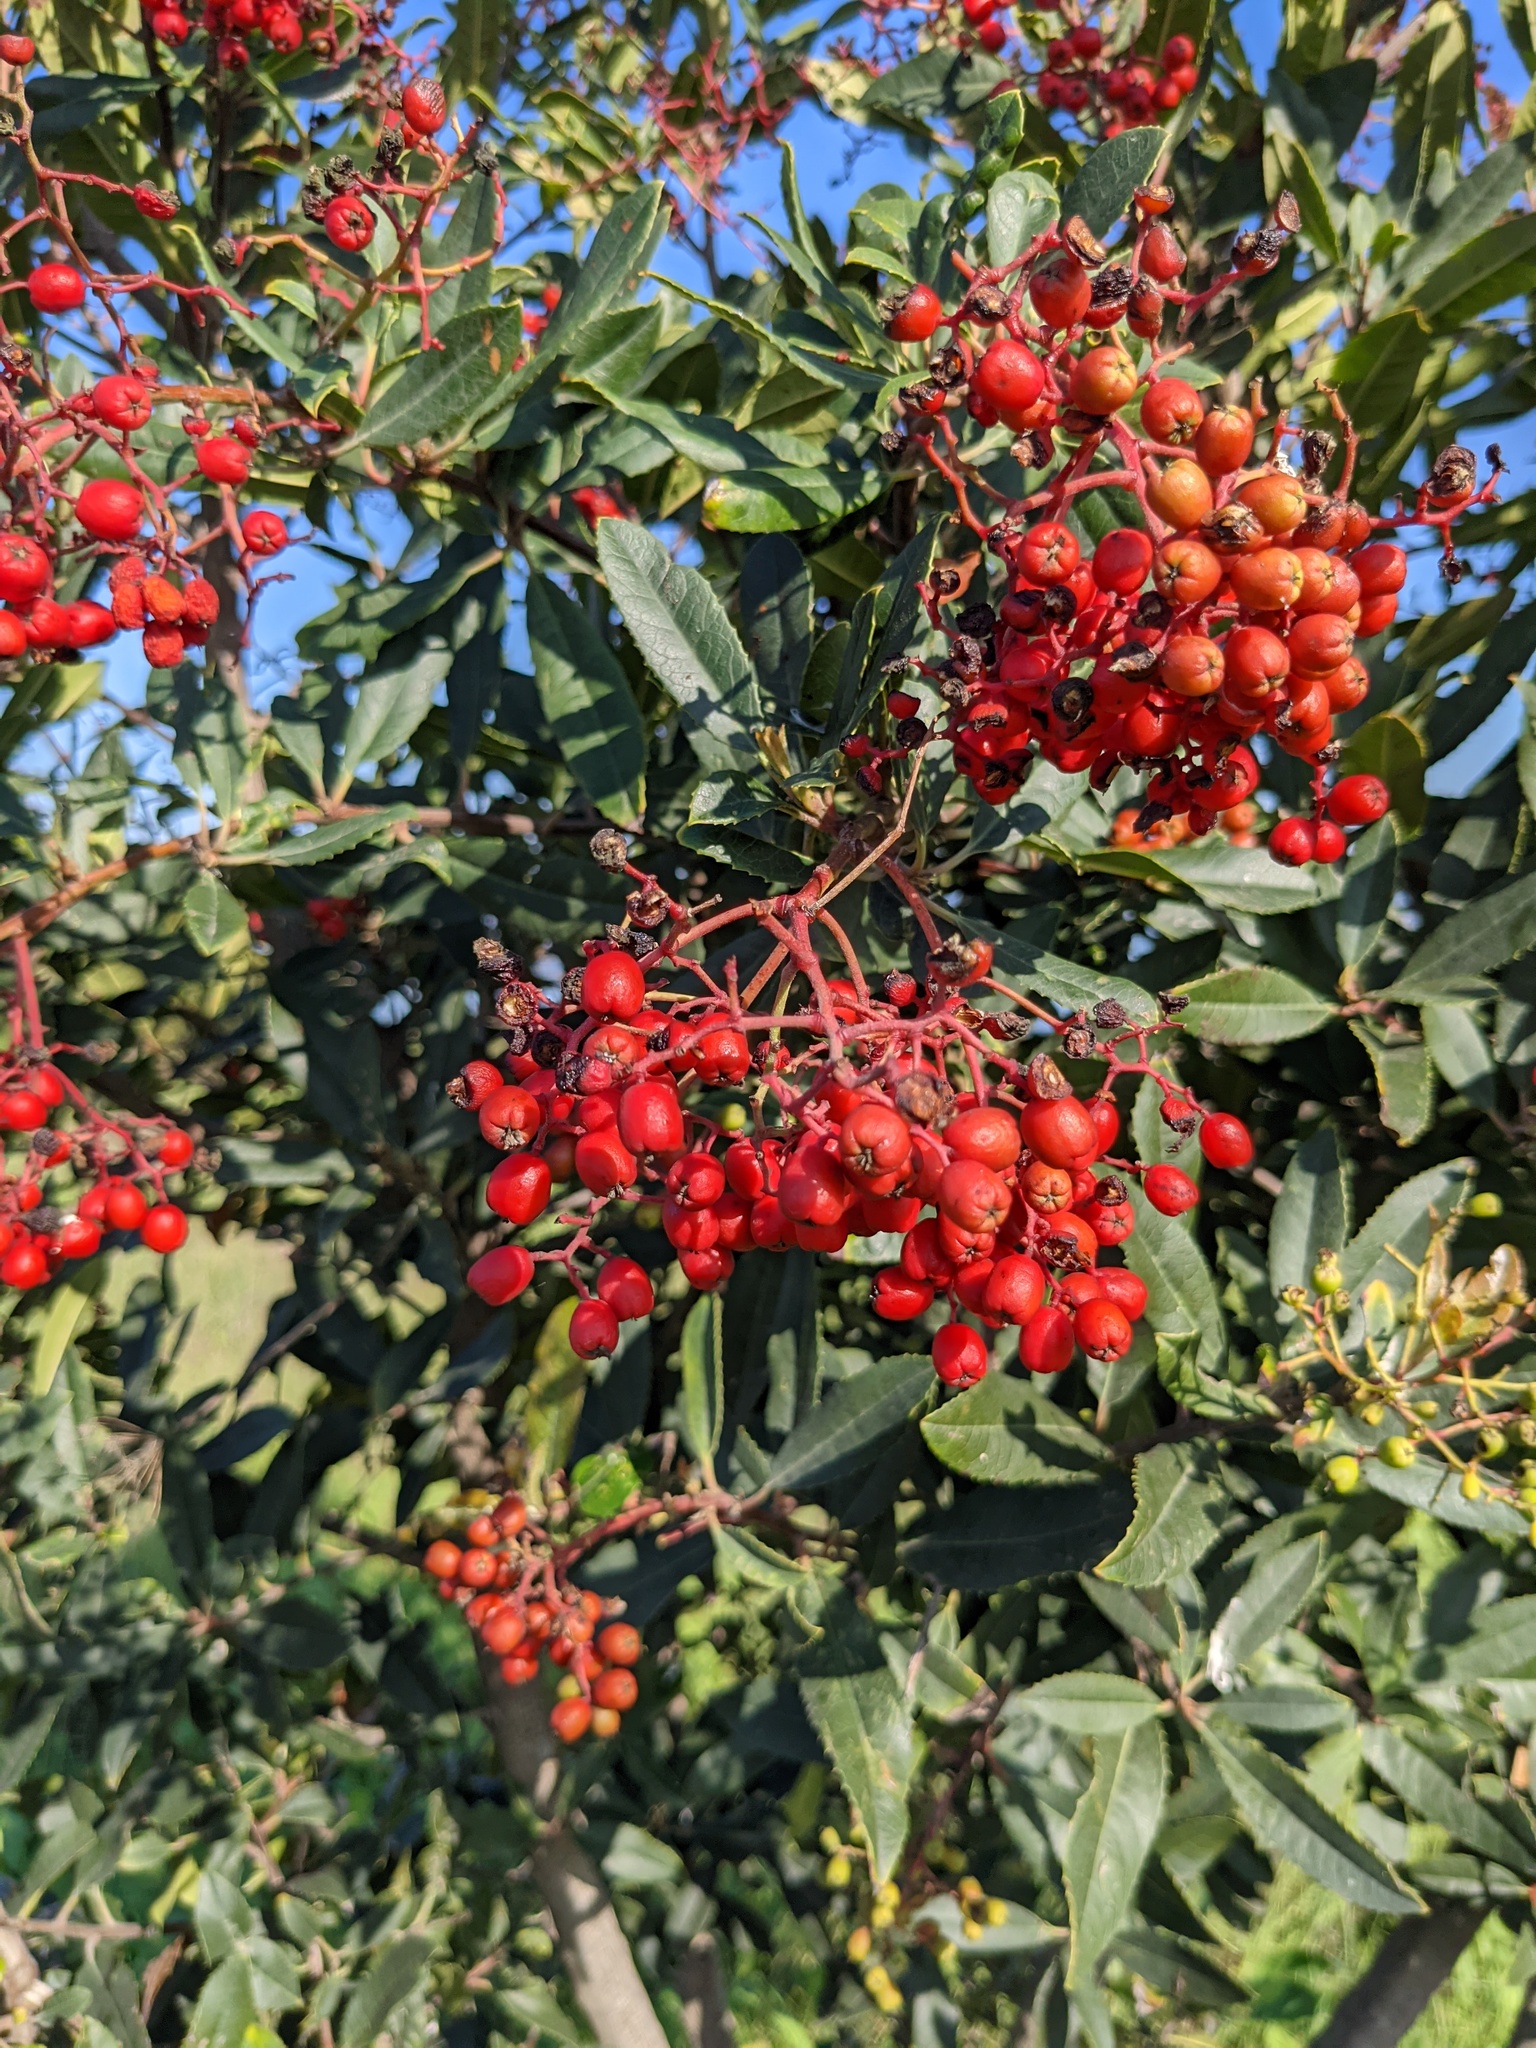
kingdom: Plantae
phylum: Tracheophyta
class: Magnoliopsida
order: Rosales
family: Rosaceae
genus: Heteromeles
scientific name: Heteromeles arbutifolia
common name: California-holly
